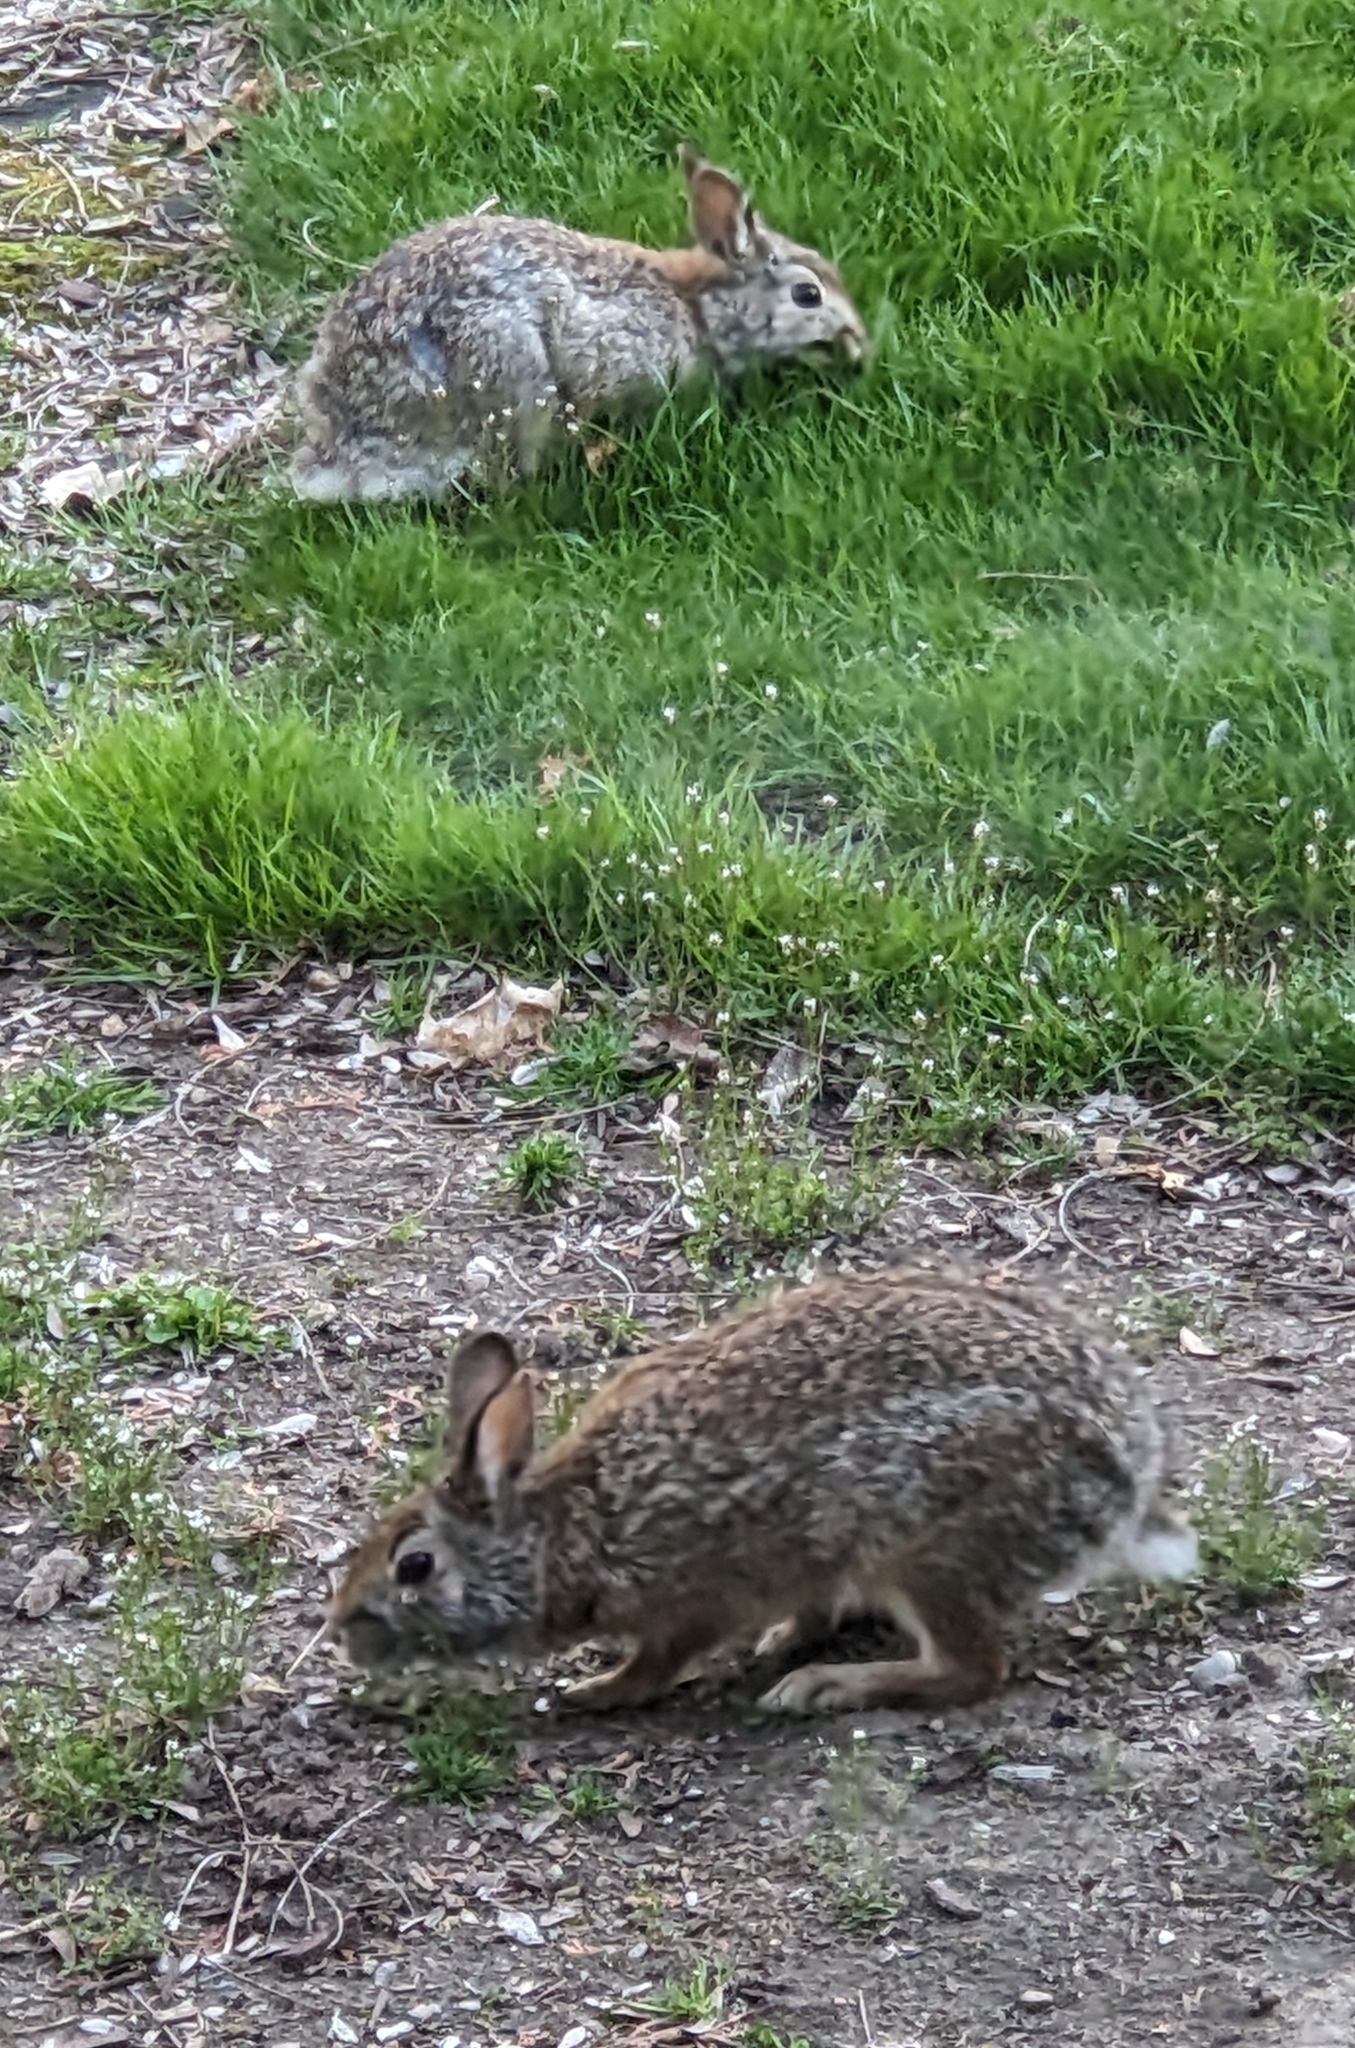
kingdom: Animalia
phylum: Chordata
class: Mammalia
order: Lagomorpha
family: Leporidae
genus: Sylvilagus
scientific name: Sylvilagus floridanus
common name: Eastern cottontail
